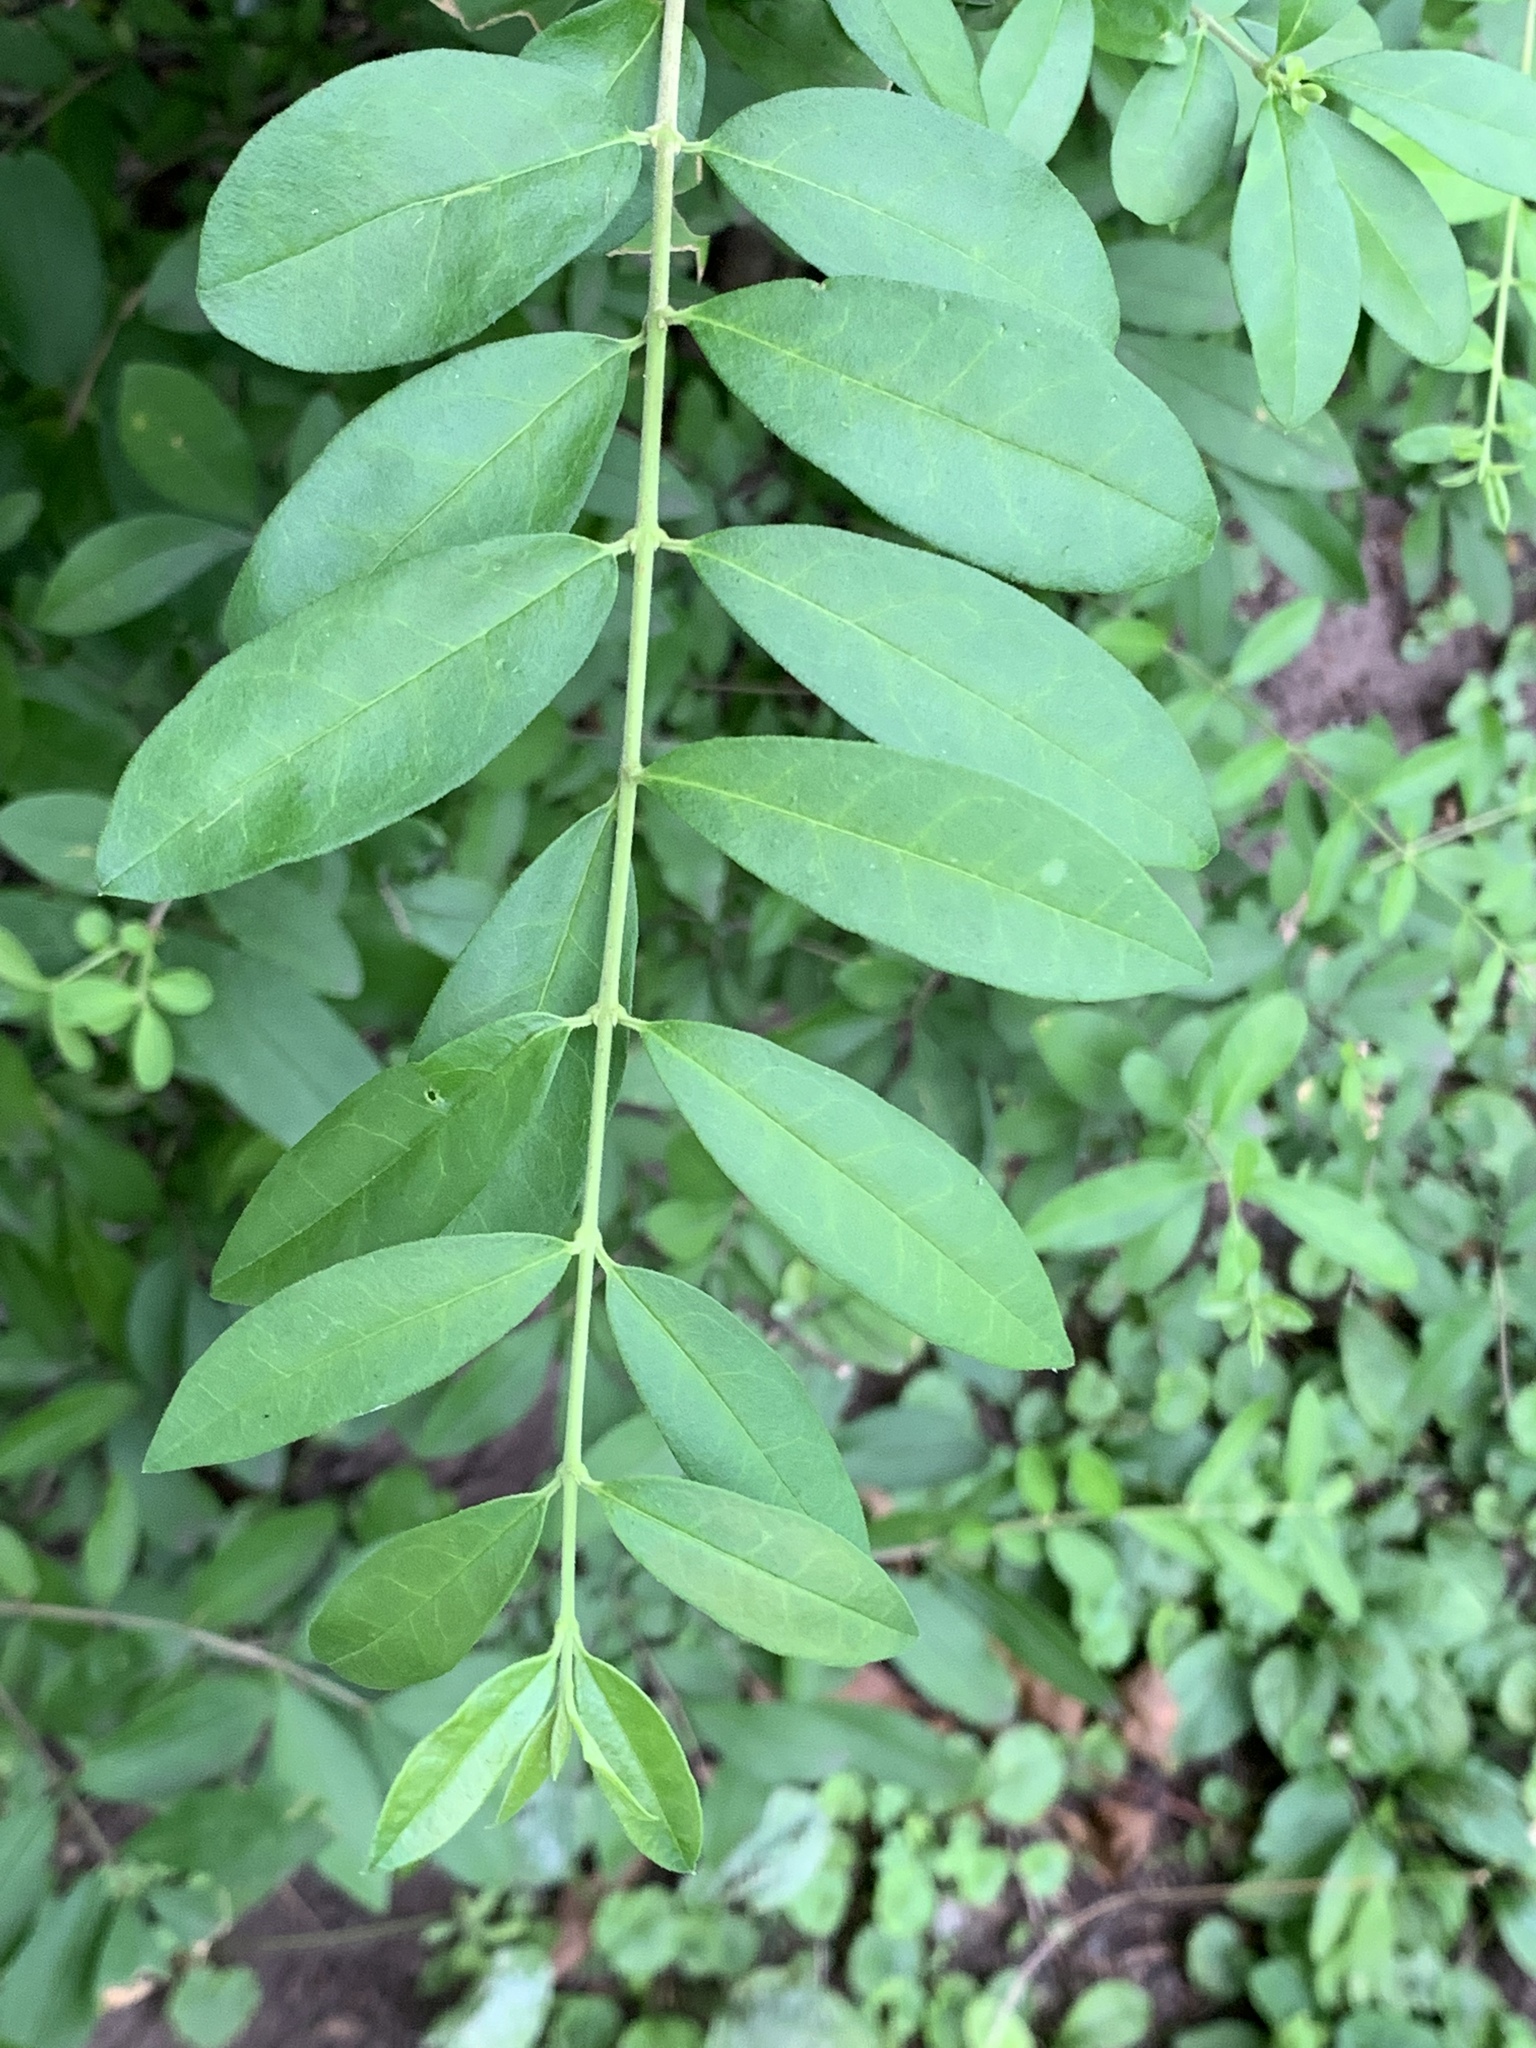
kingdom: Plantae
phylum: Tracheophyta
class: Magnoliopsida
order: Lamiales
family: Oleaceae
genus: Ligustrum
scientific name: Ligustrum obtusifolium
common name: Border privet
